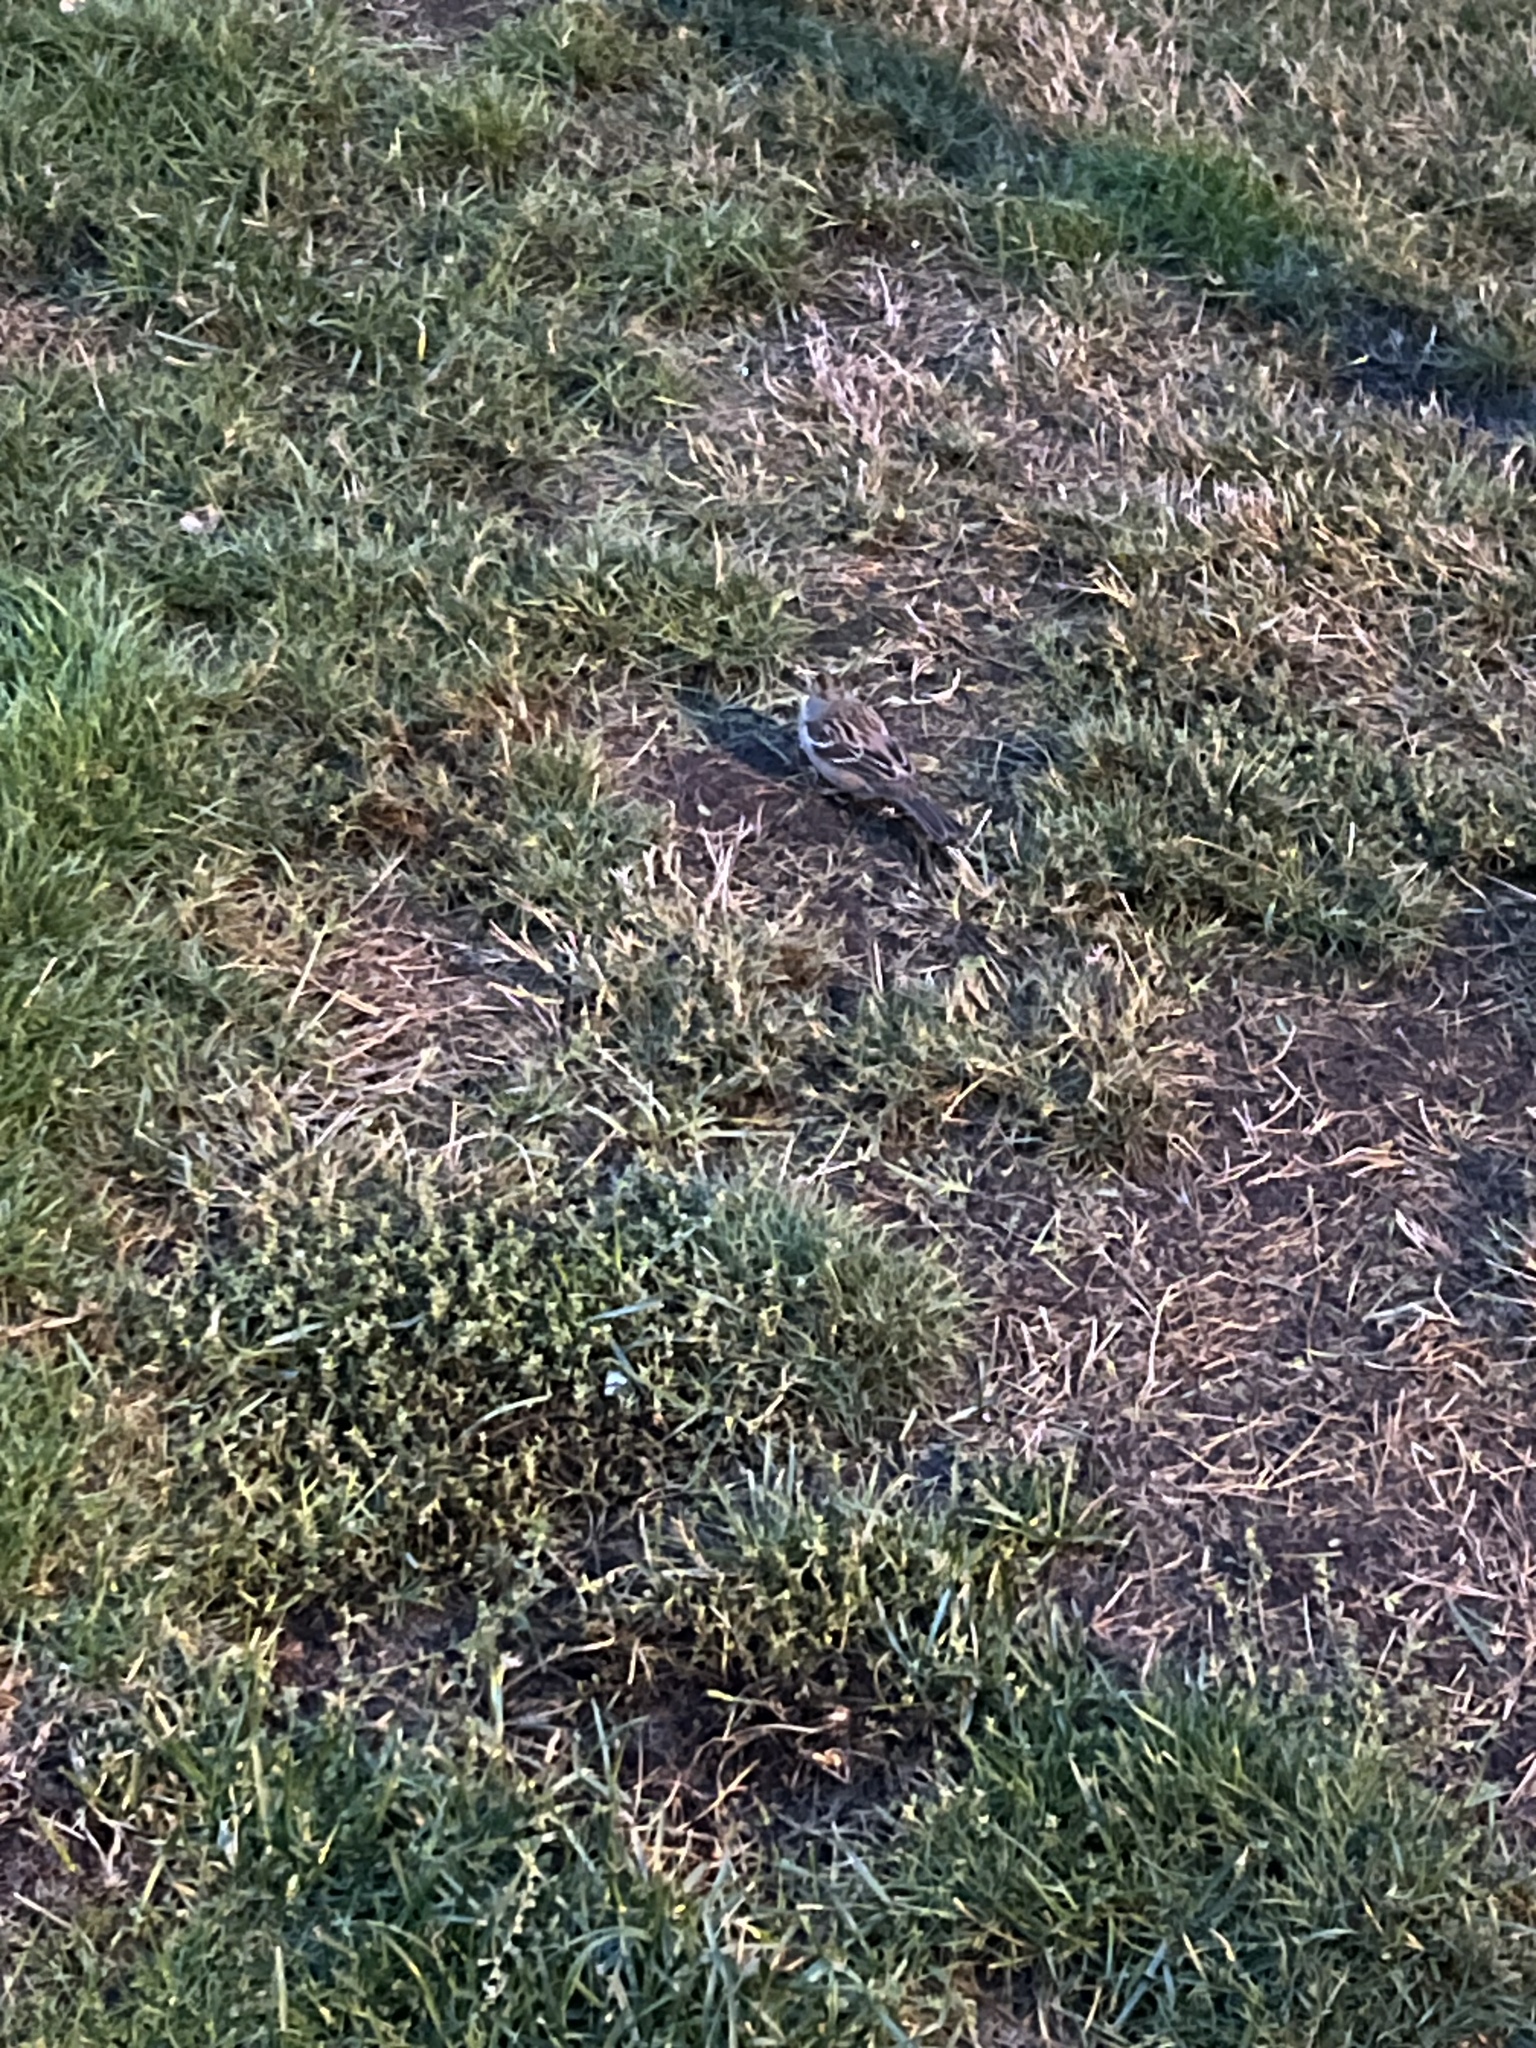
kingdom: Animalia
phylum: Chordata
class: Aves
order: Passeriformes
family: Passerellidae
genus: Zonotrichia
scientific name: Zonotrichia leucophrys
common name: White-crowned sparrow
